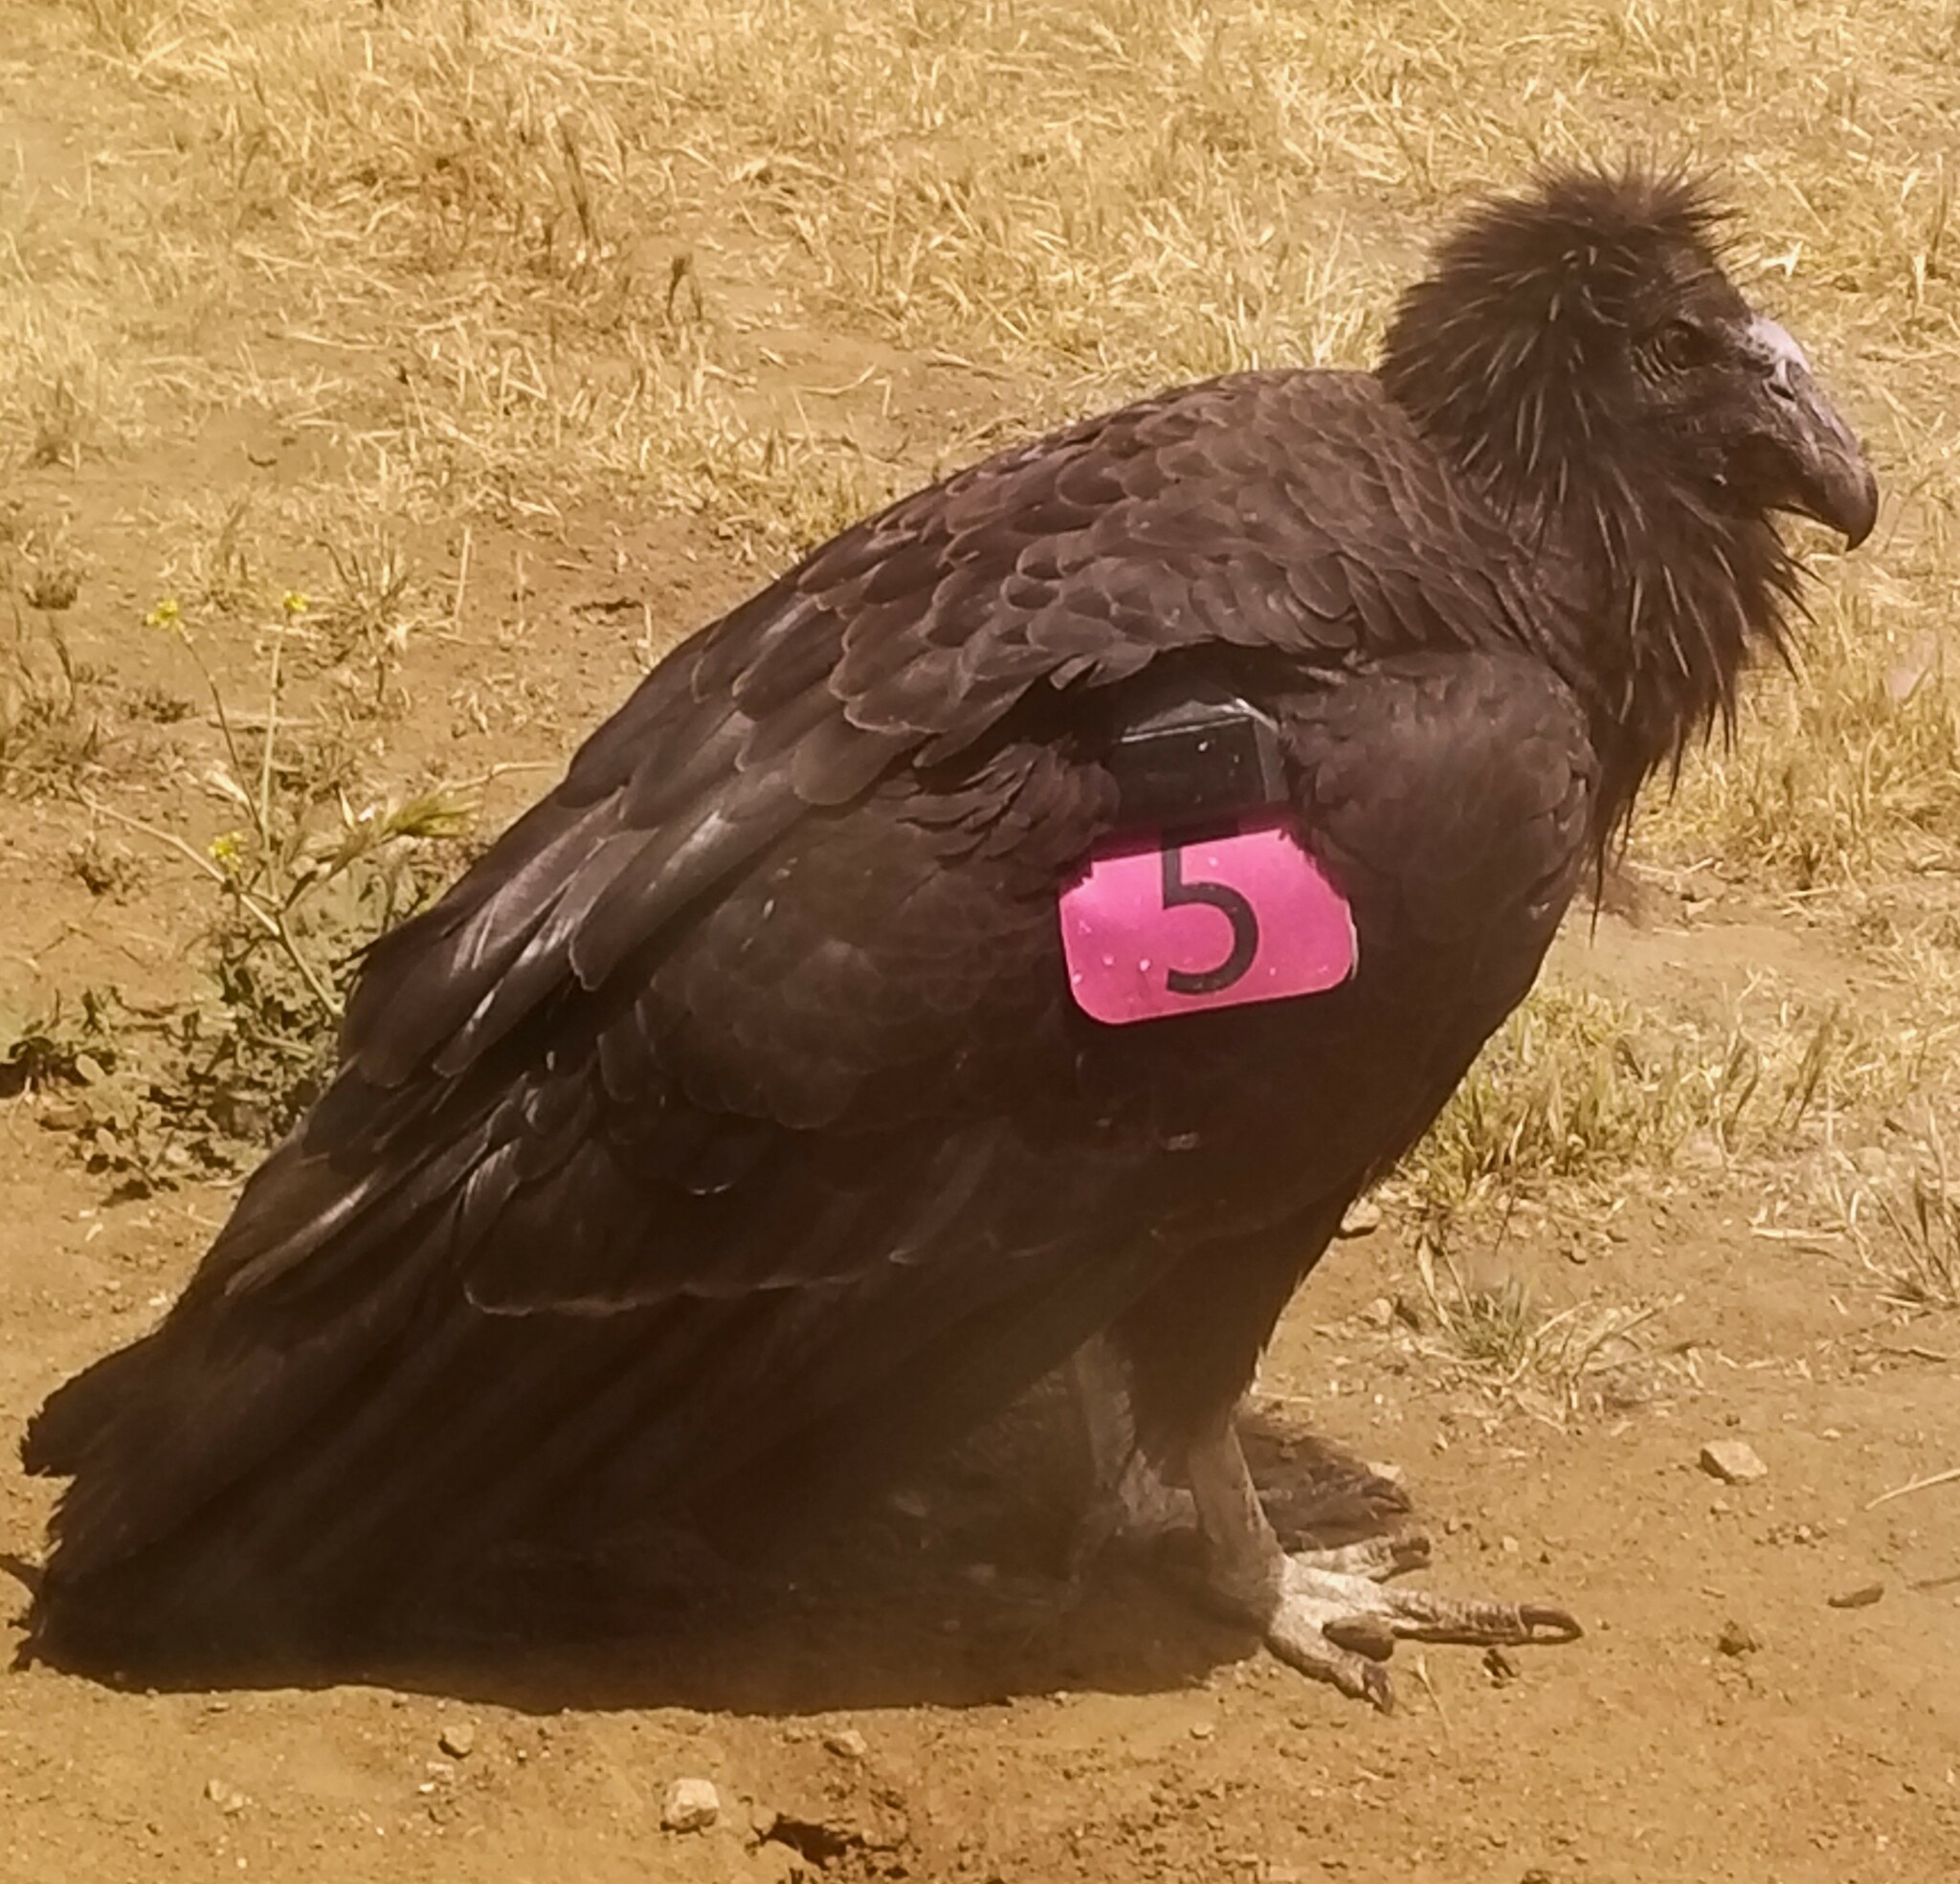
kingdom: Animalia
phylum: Chordata
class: Aves
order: Accipitriformes
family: Cathartidae
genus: Gymnogyps
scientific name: Gymnogyps californianus
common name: California condor
